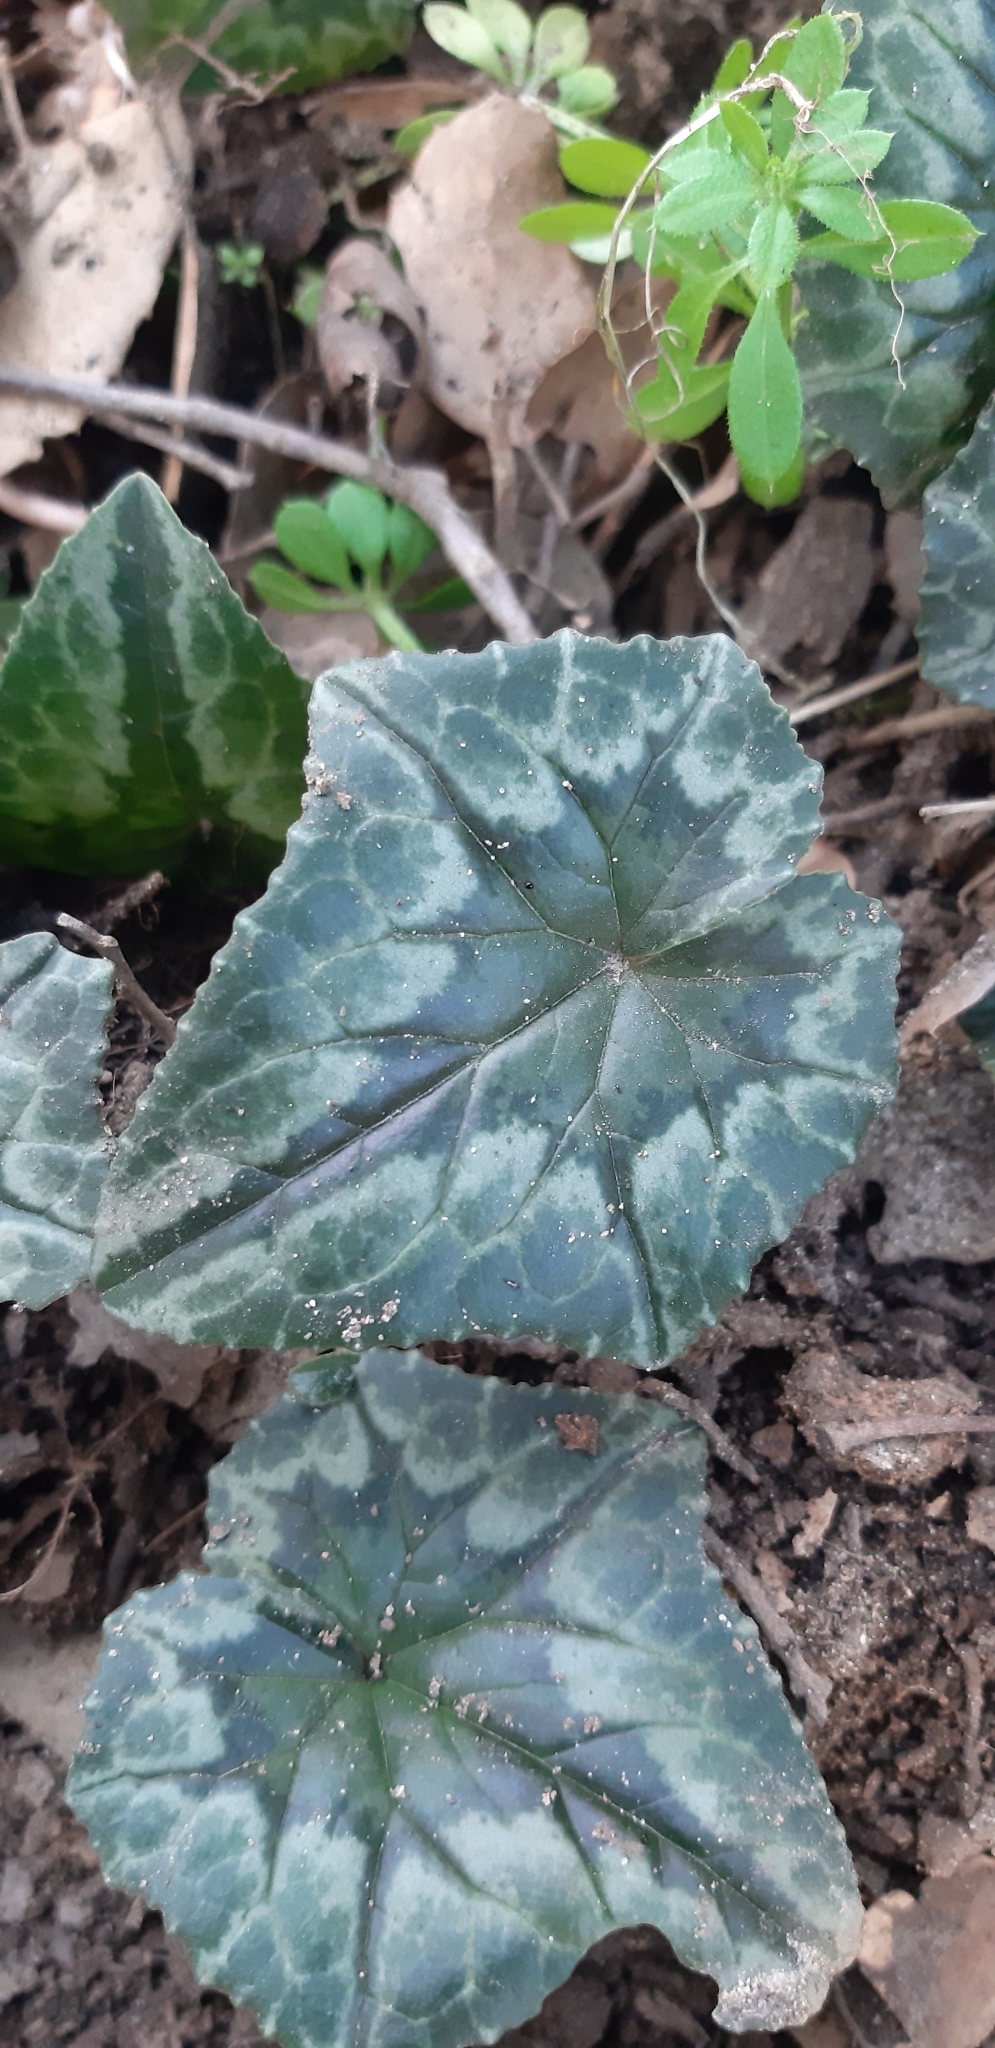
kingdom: Plantae
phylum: Tracheophyta
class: Magnoliopsida
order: Ericales
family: Primulaceae
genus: Cyclamen
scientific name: Cyclamen hederifolium
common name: Sowbread
